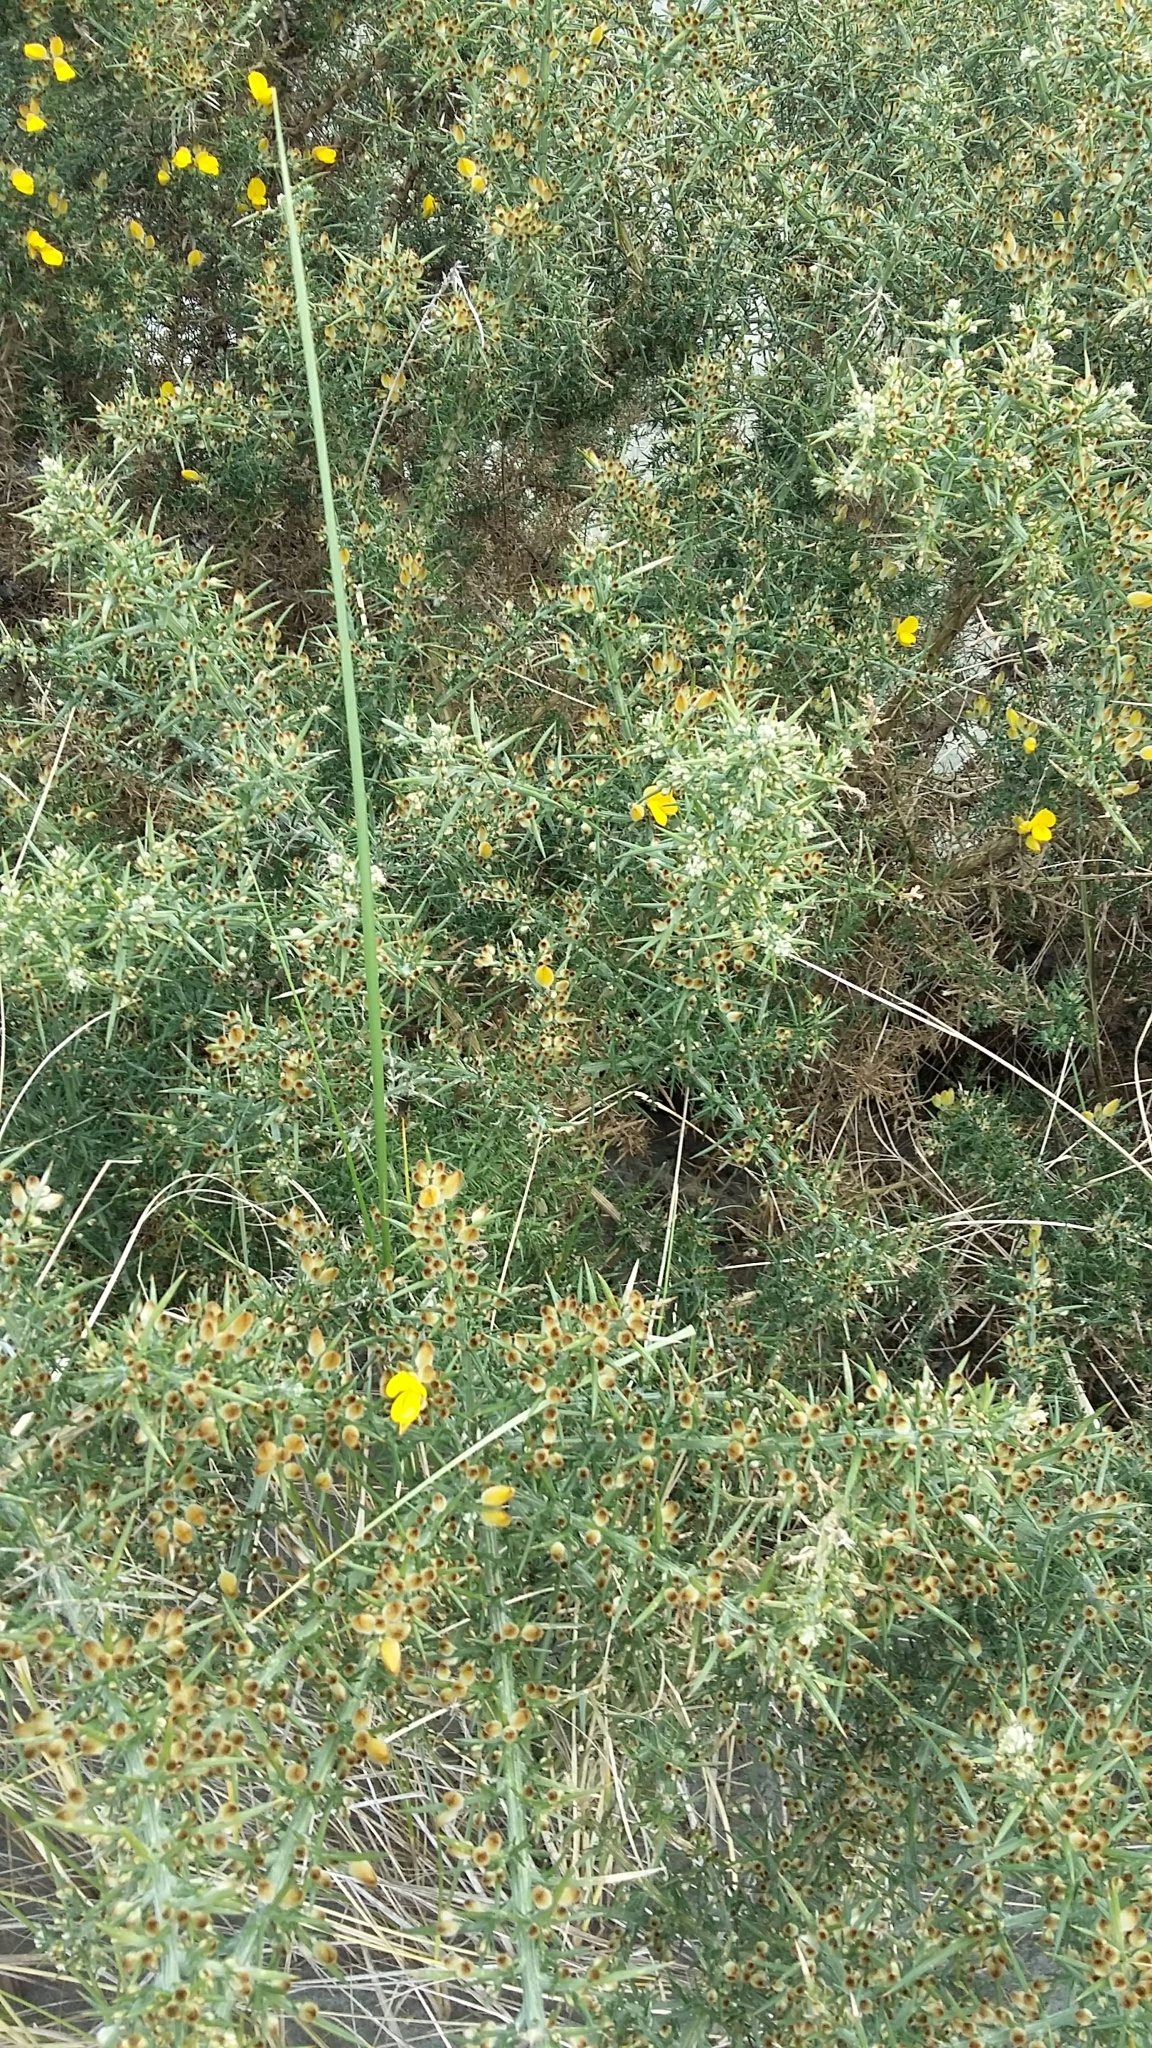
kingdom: Plantae
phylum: Tracheophyta
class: Magnoliopsida
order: Fabales
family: Fabaceae
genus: Ulex
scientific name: Ulex europaeus
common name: Common gorse
